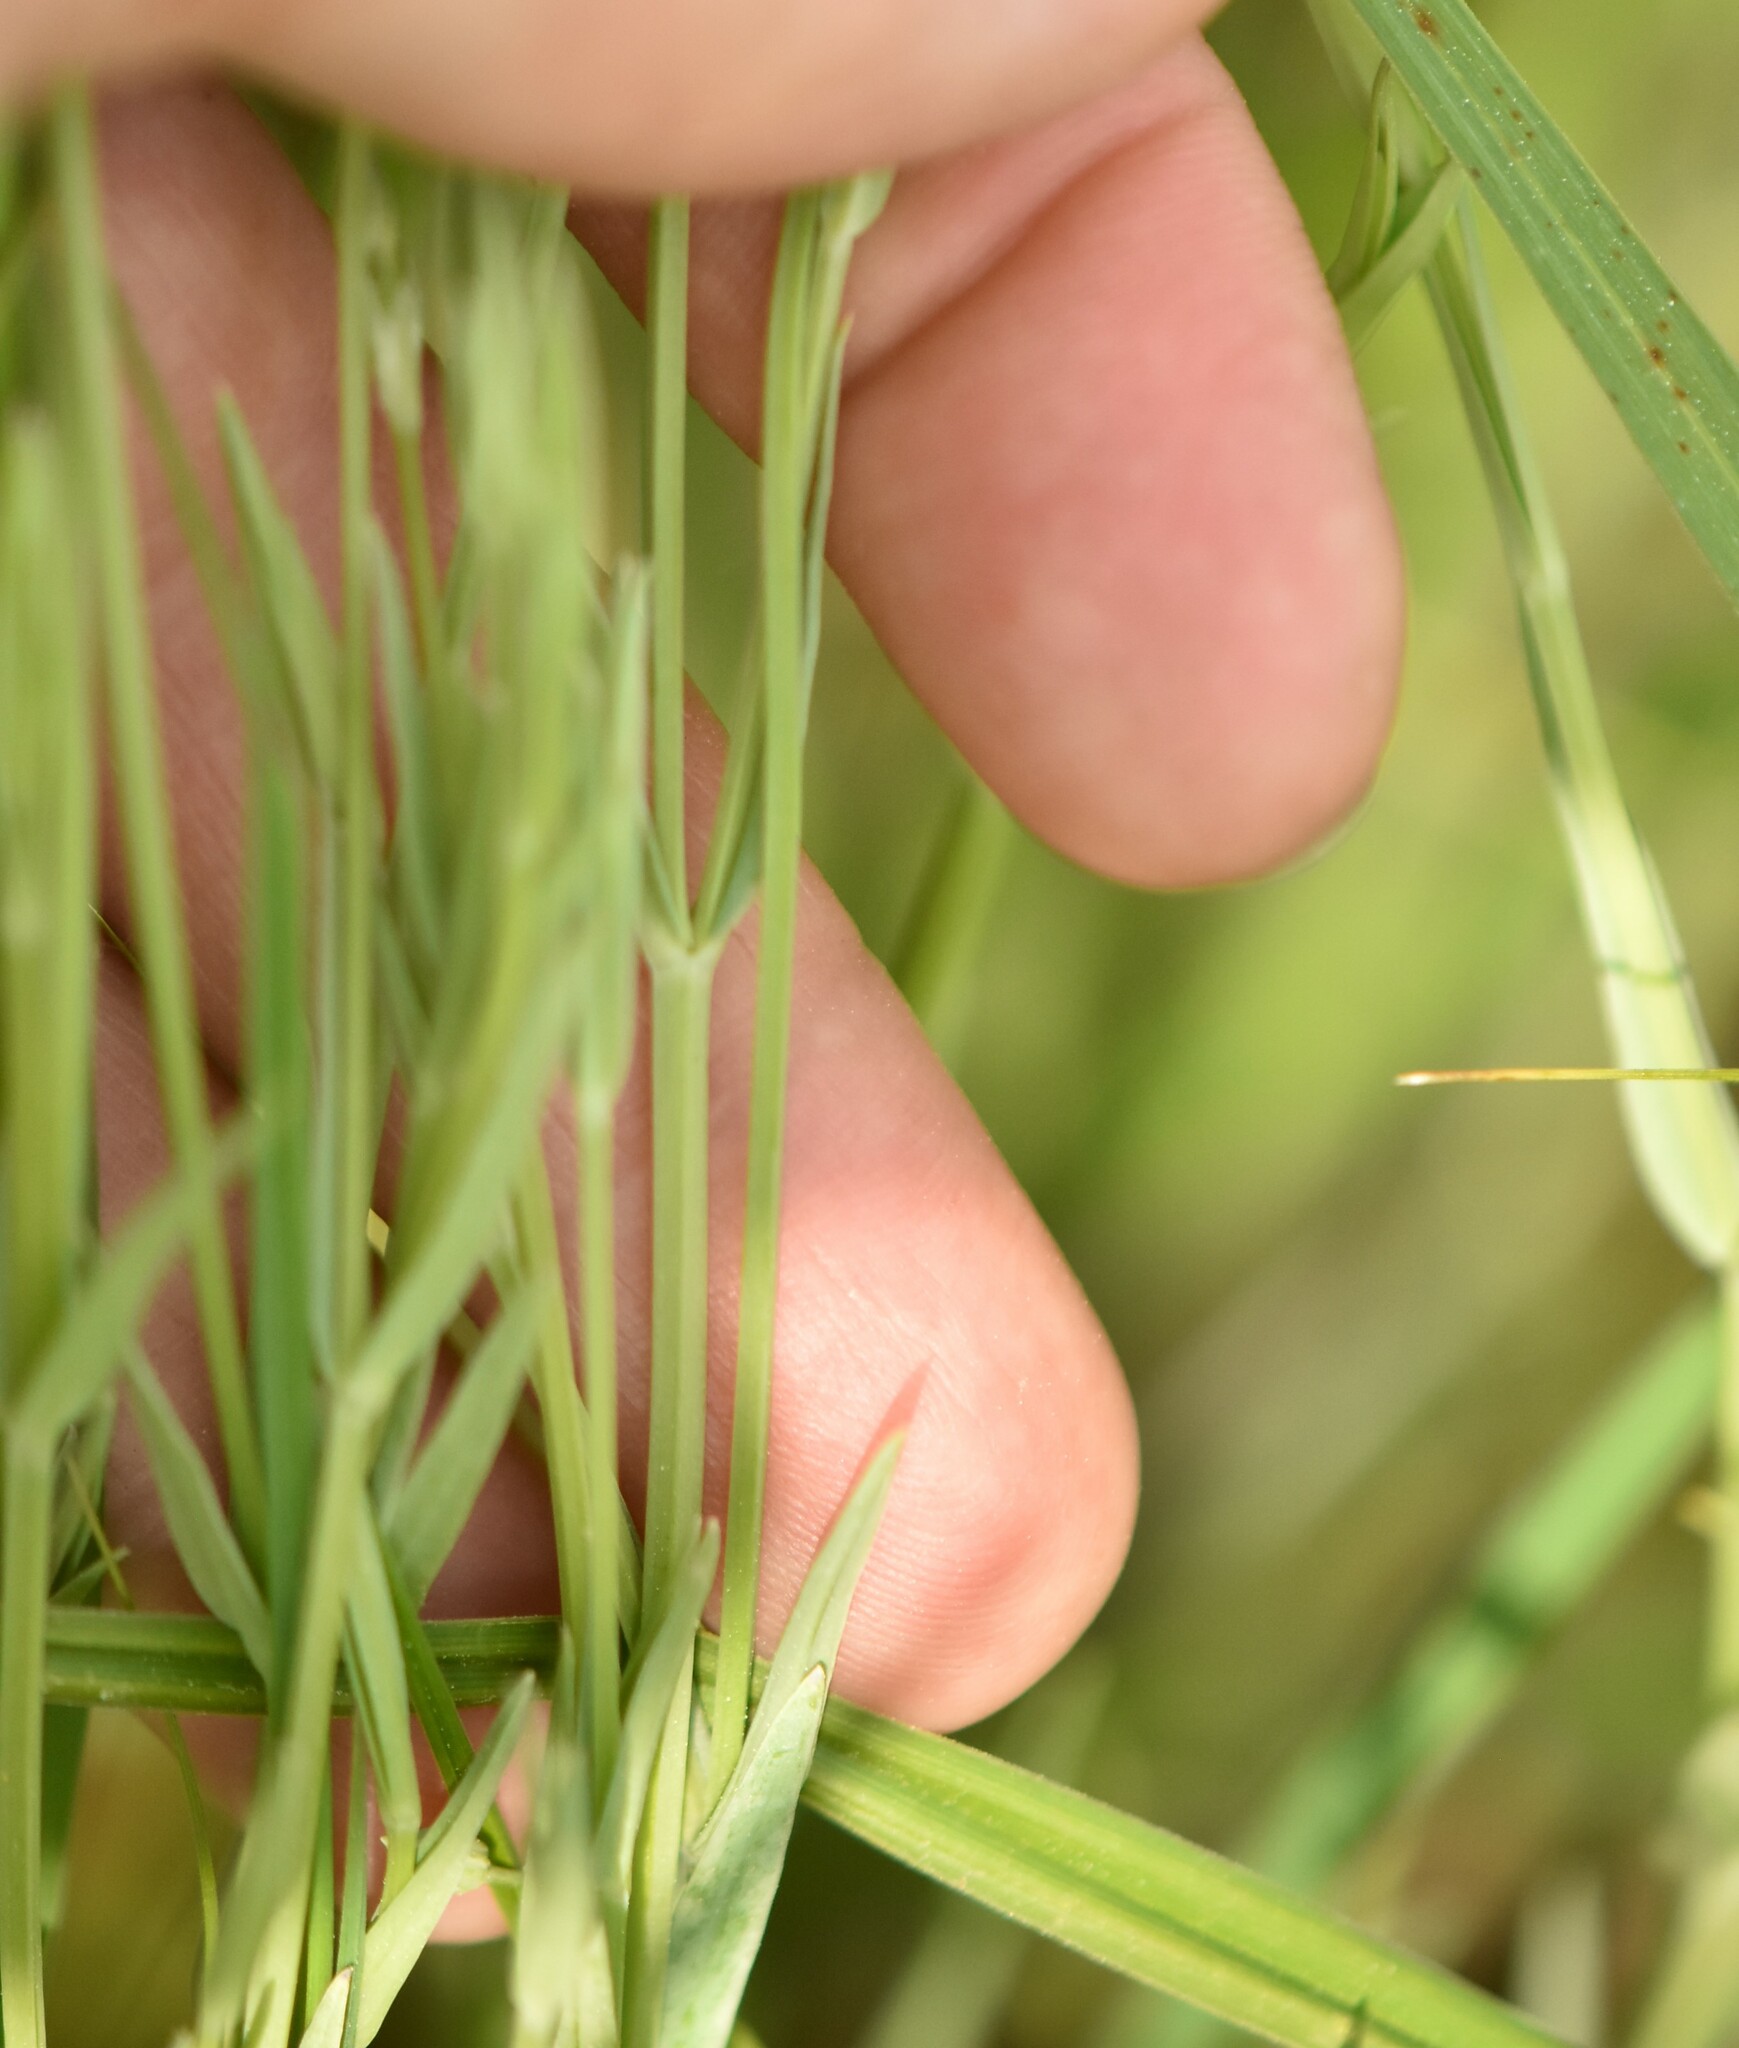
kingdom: Plantae
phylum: Tracheophyta
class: Magnoliopsida
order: Caryophyllales
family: Caryophyllaceae
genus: Stellaria
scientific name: Stellaria palustris
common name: Marsh stitchwort
